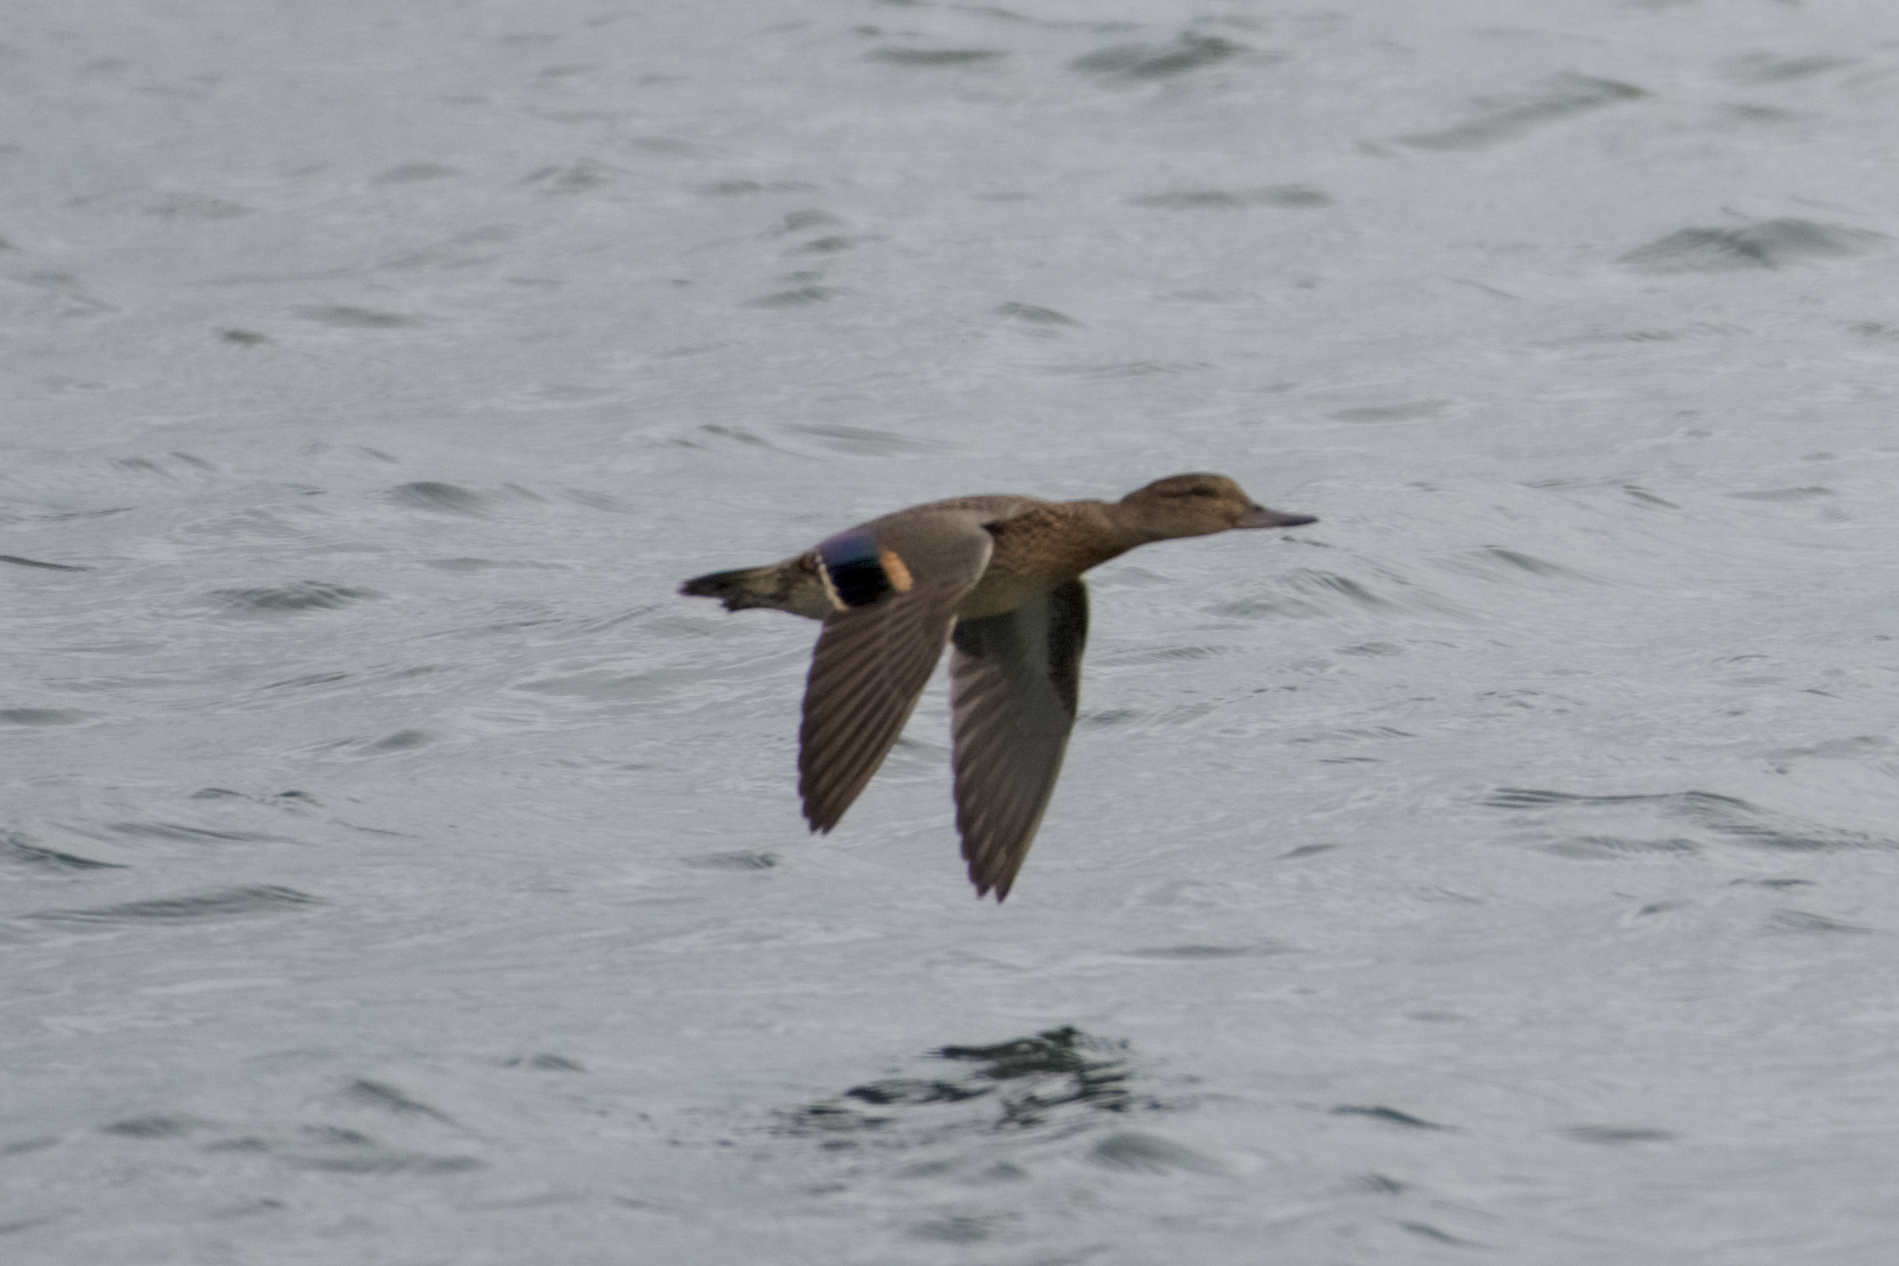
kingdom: Animalia
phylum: Chordata
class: Aves
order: Anseriformes
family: Anatidae
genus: Anas
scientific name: Anas crecca
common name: Eurasian teal
